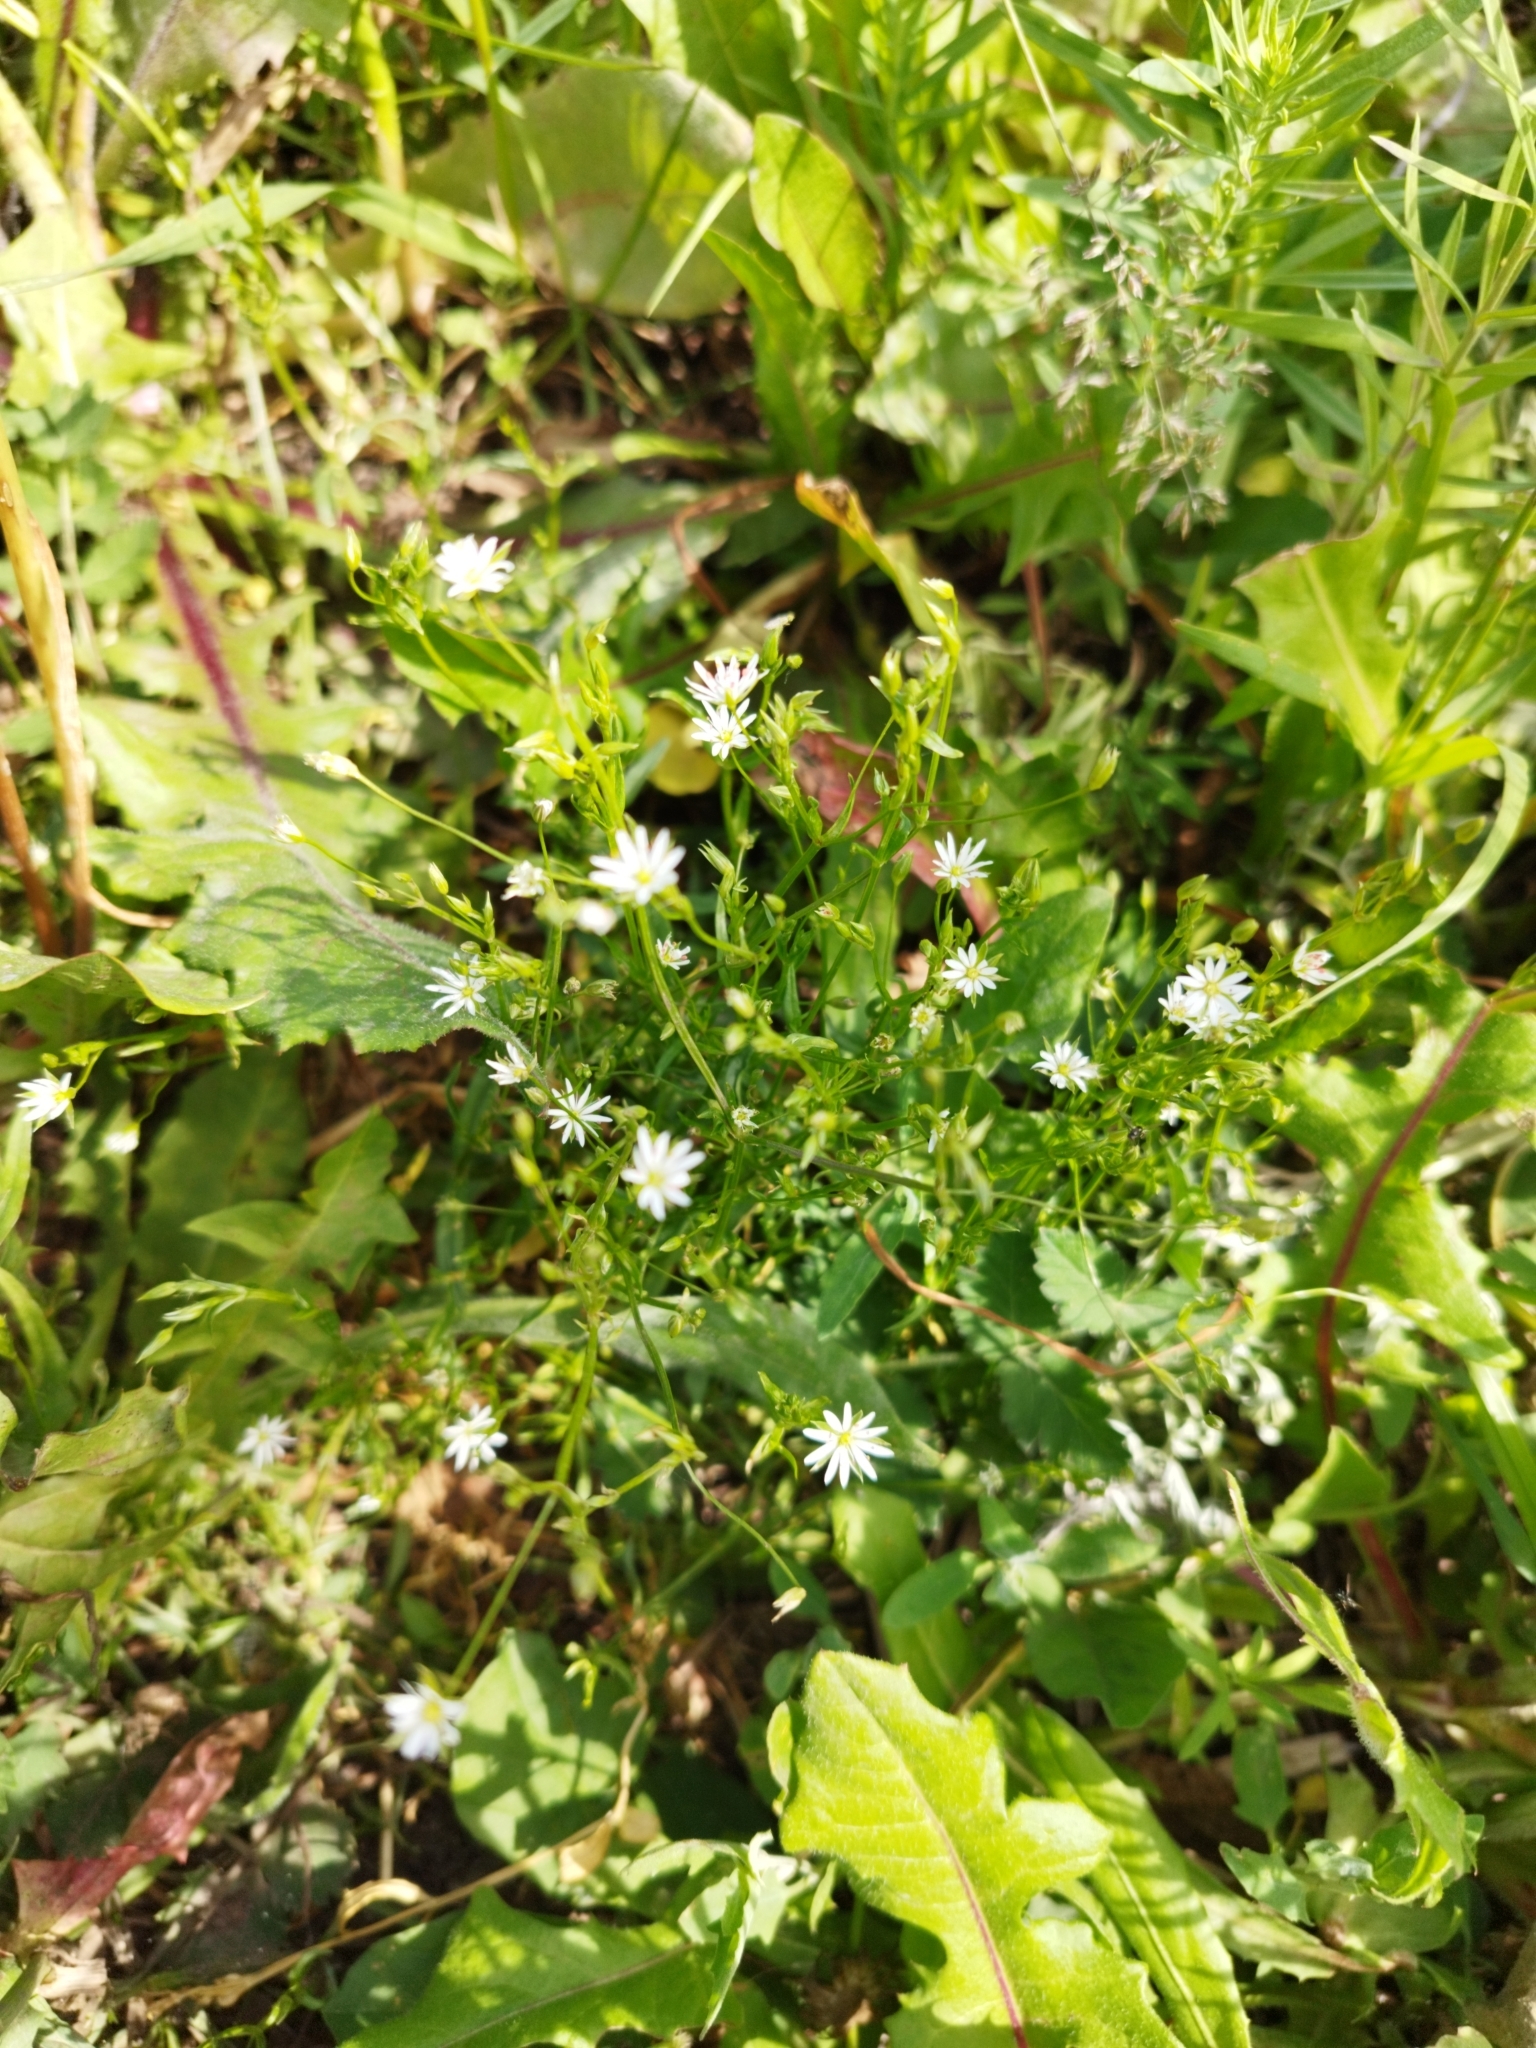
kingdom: Plantae
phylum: Tracheophyta
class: Magnoliopsida
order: Caryophyllales
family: Caryophyllaceae
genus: Stellaria
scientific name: Stellaria graminea
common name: Grass-like starwort
